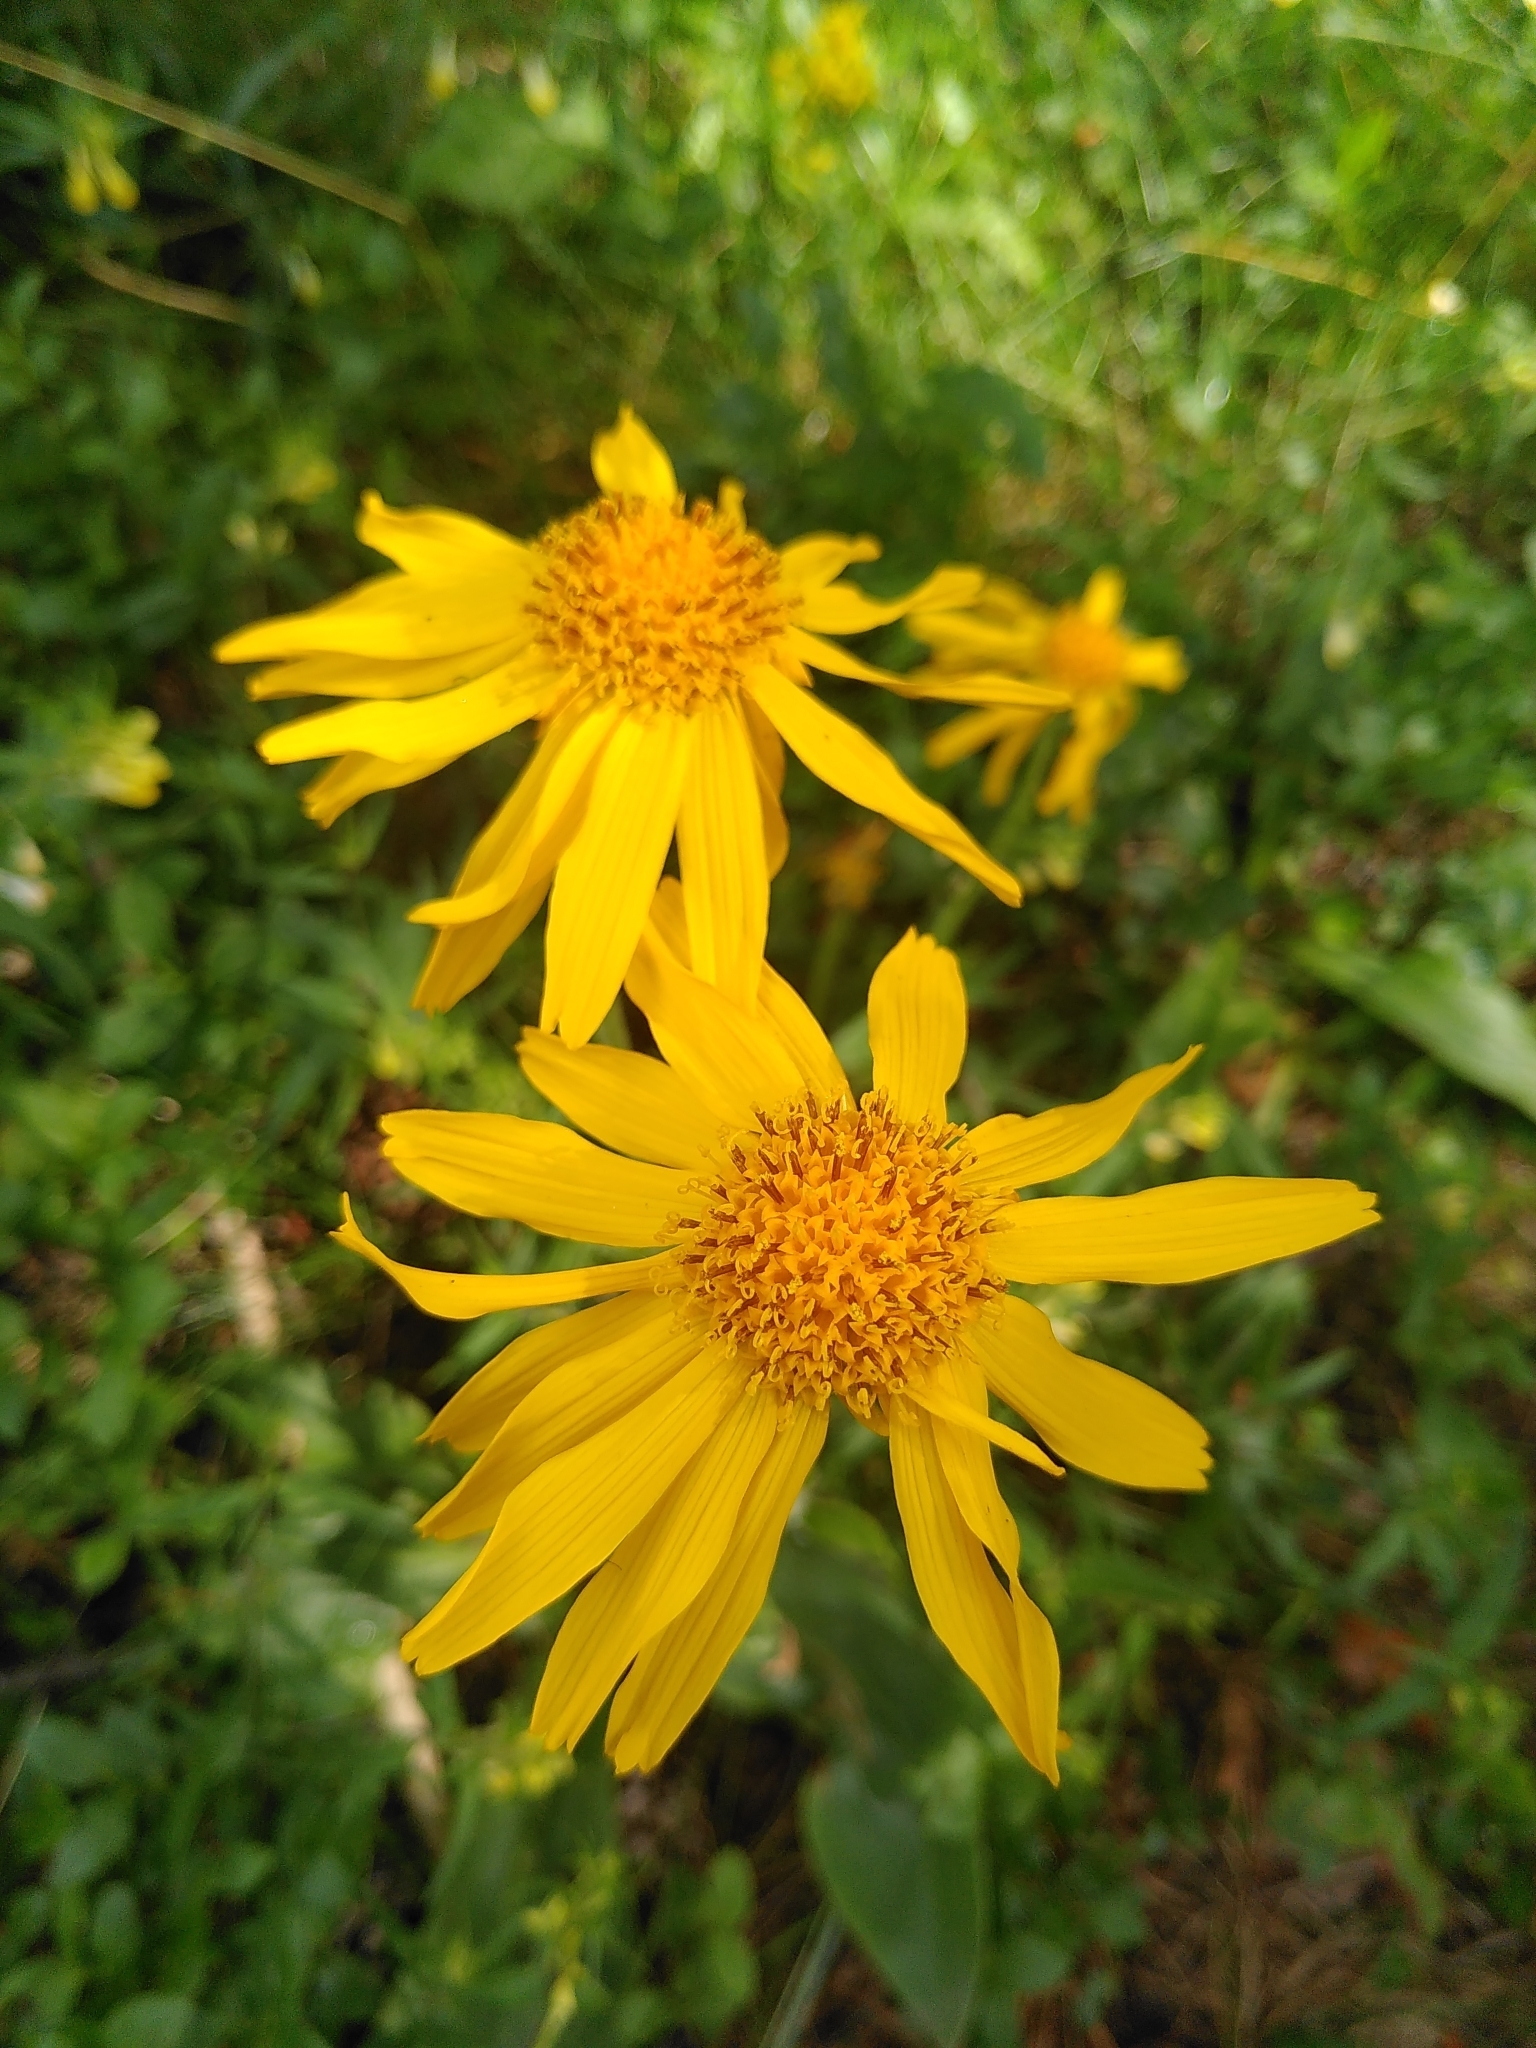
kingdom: Plantae
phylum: Tracheophyta
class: Magnoliopsida
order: Asterales
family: Asteraceae
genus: Arnica
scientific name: Arnica montana
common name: Leopard's bane
